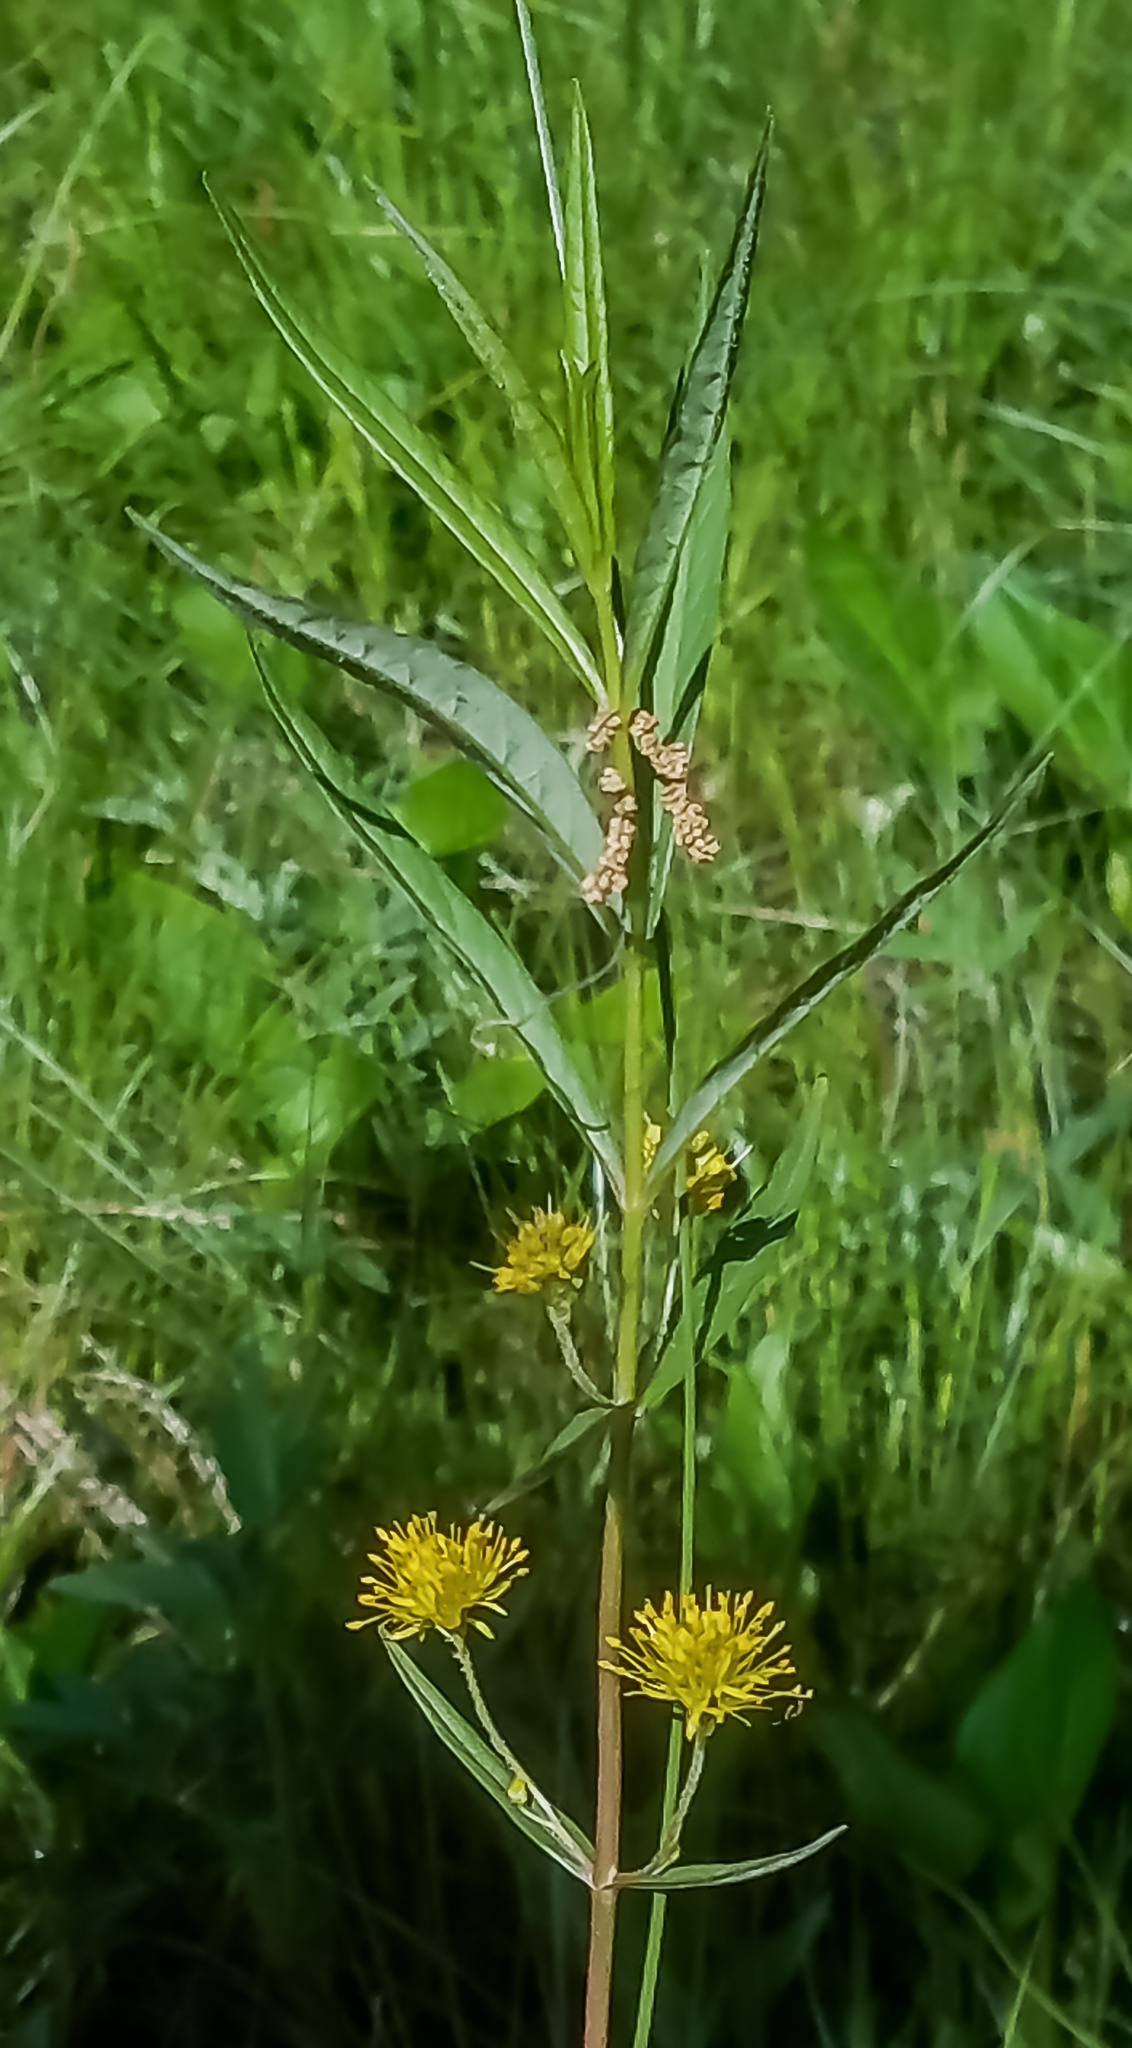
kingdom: Plantae
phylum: Tracheophyta
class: Magnoliopsida
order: Ericales
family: Primulaceae
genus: Lysimachia
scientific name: Lysimachia thyrsiflora
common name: Tufted loosestrife
